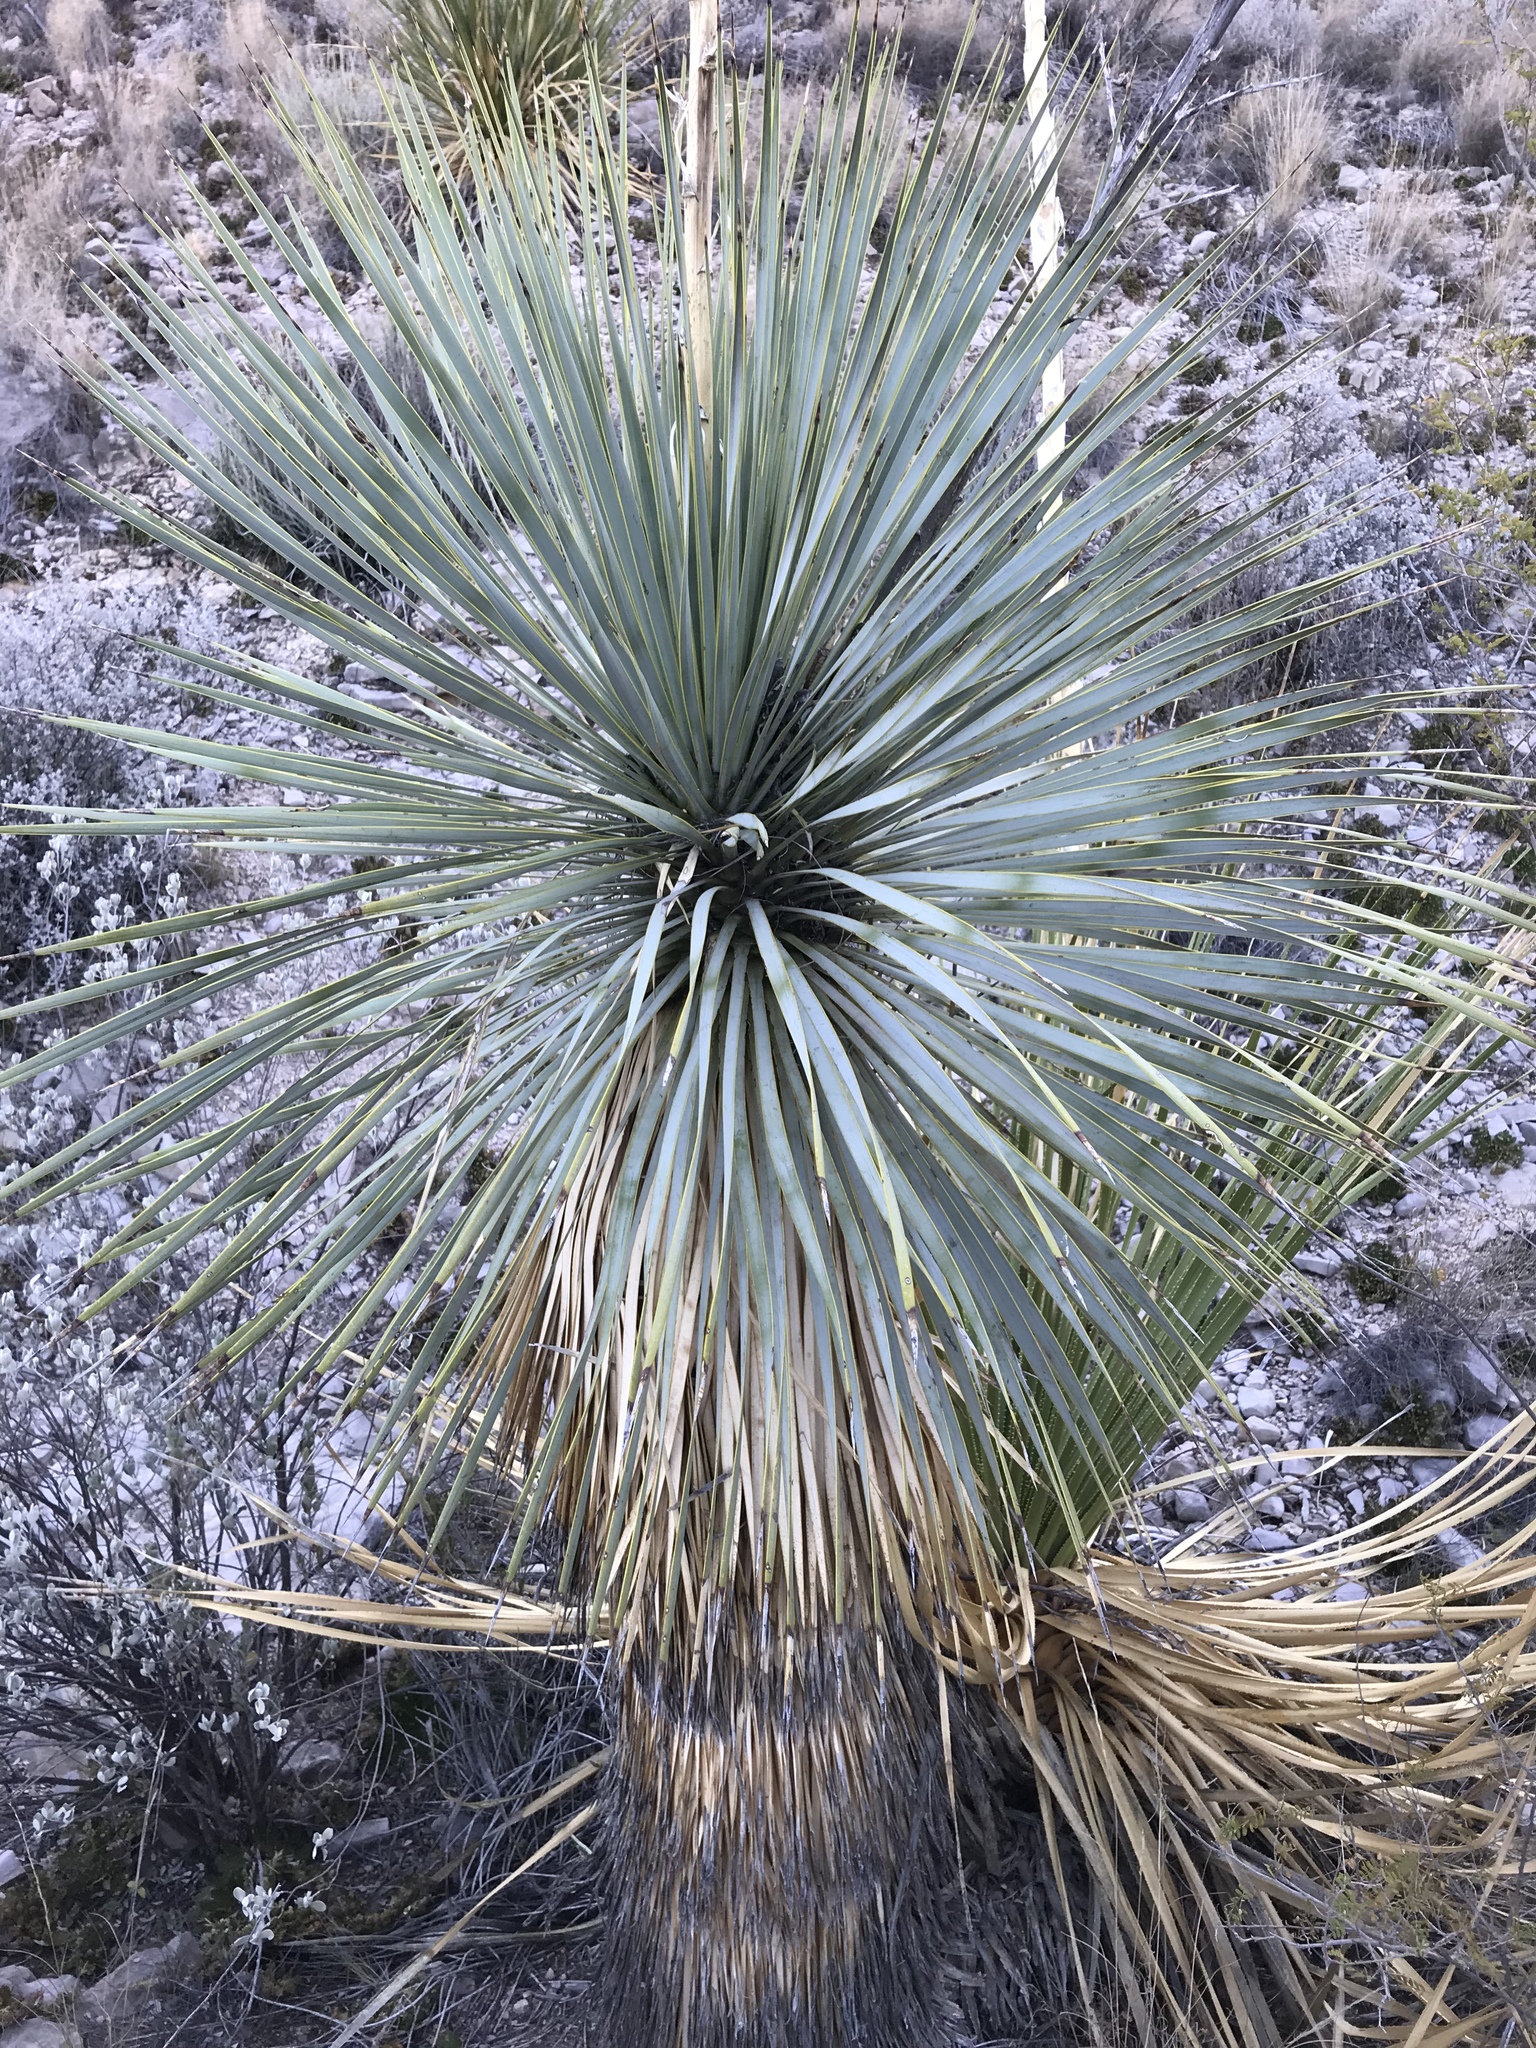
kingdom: Plantae
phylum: Tracheophyta
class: Liliopsida
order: Asparagales
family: Asparagaceae
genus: Yucca
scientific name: Yucca rostrata
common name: Big bend yucca
